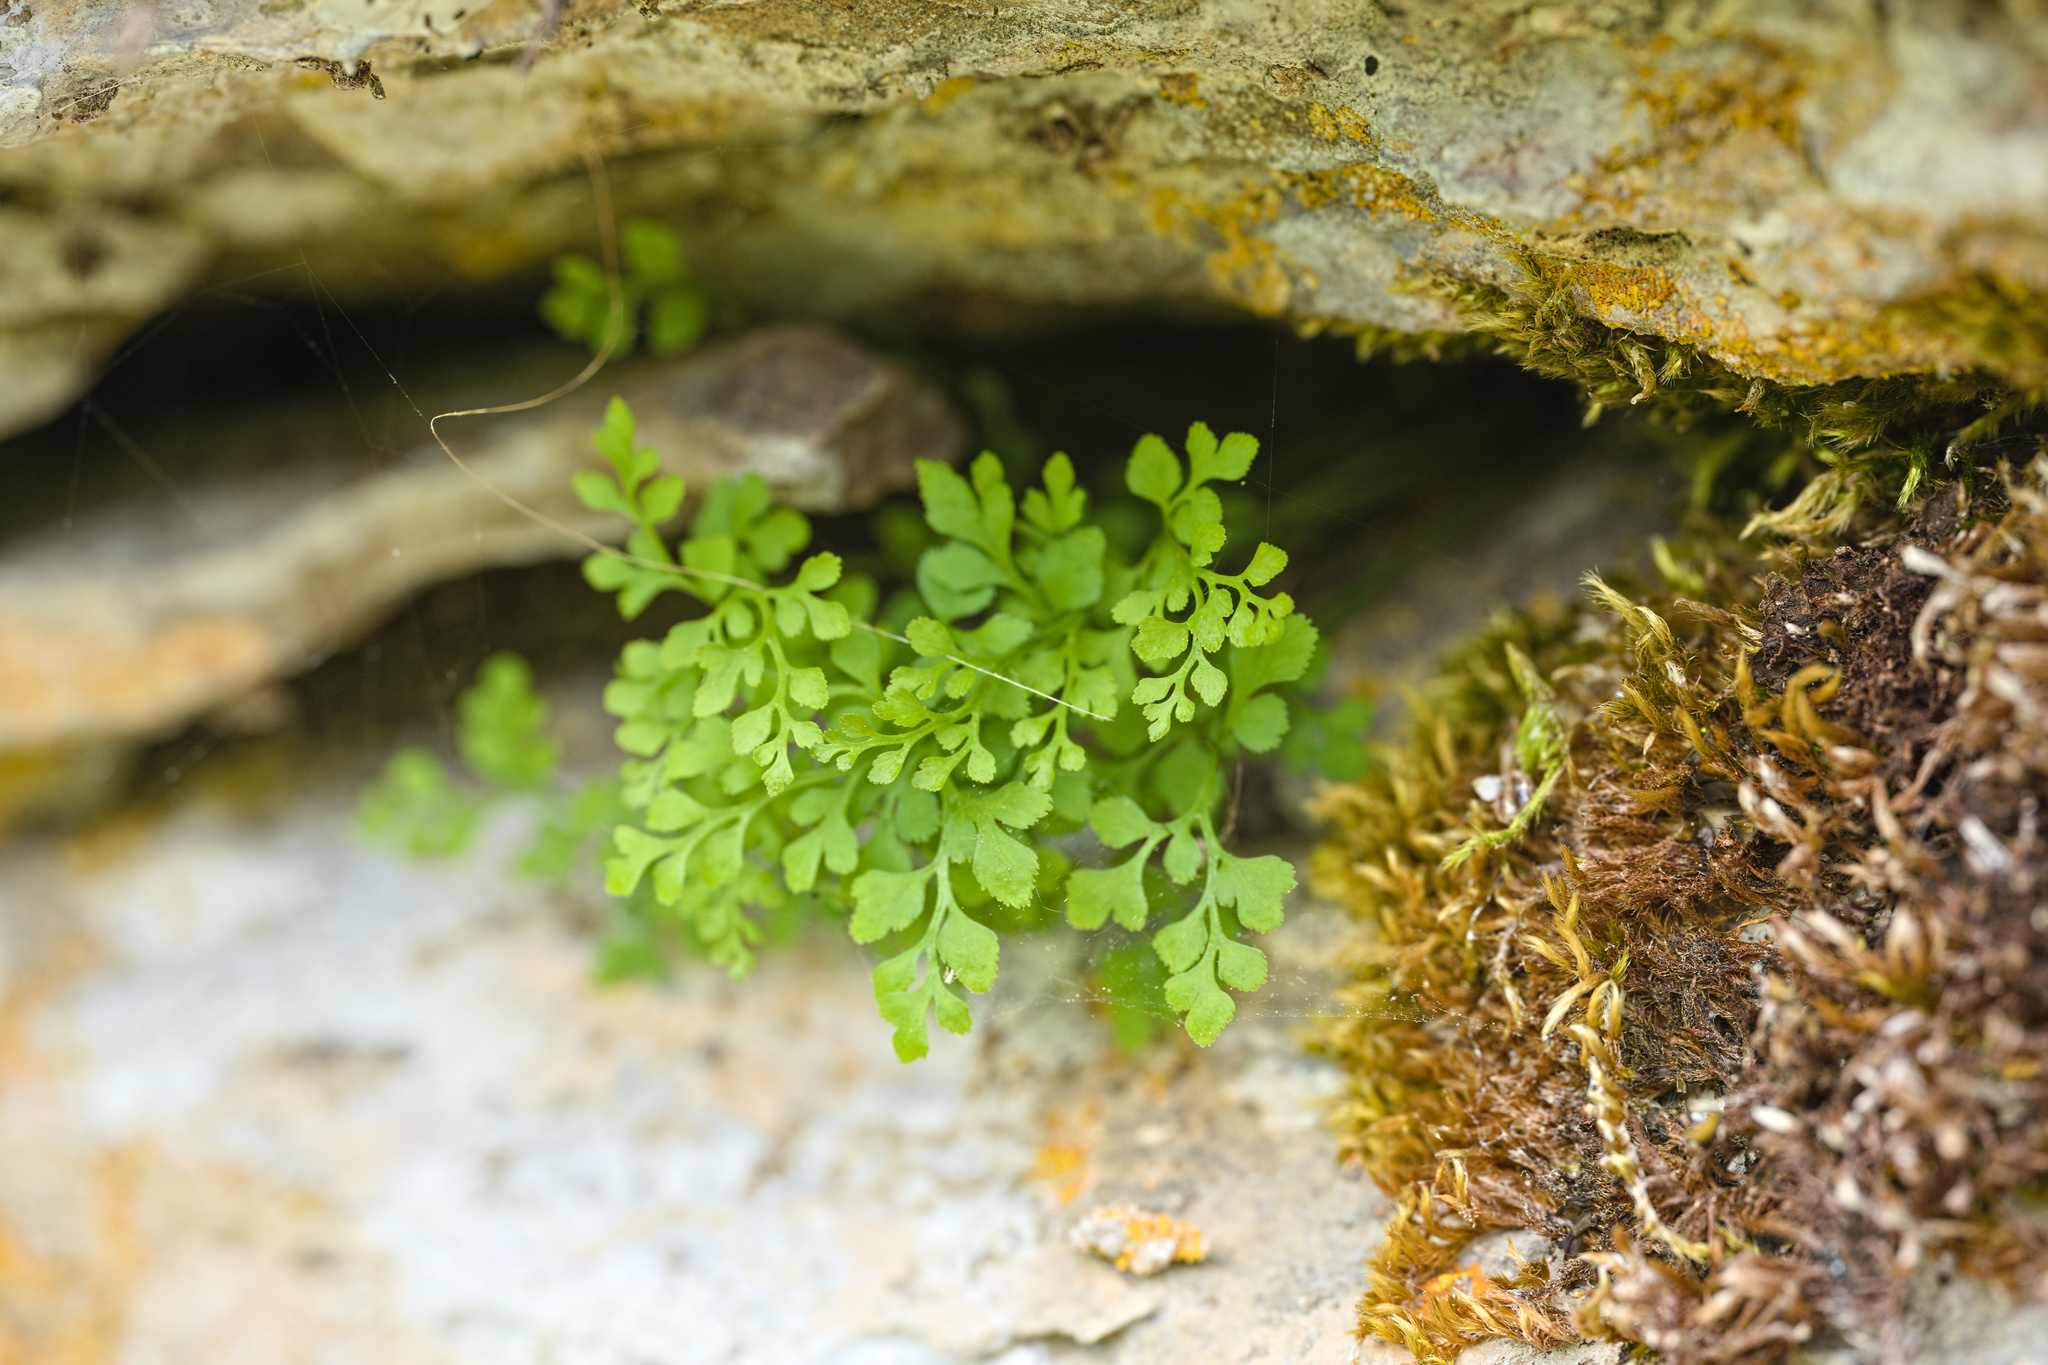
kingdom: Plantae
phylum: Tracheophyta
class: Polypodiopsida
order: Polypodiales
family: Aspleniaceae
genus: Asplenium
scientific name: Asplenium ruta-muraria
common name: Wall-rue
